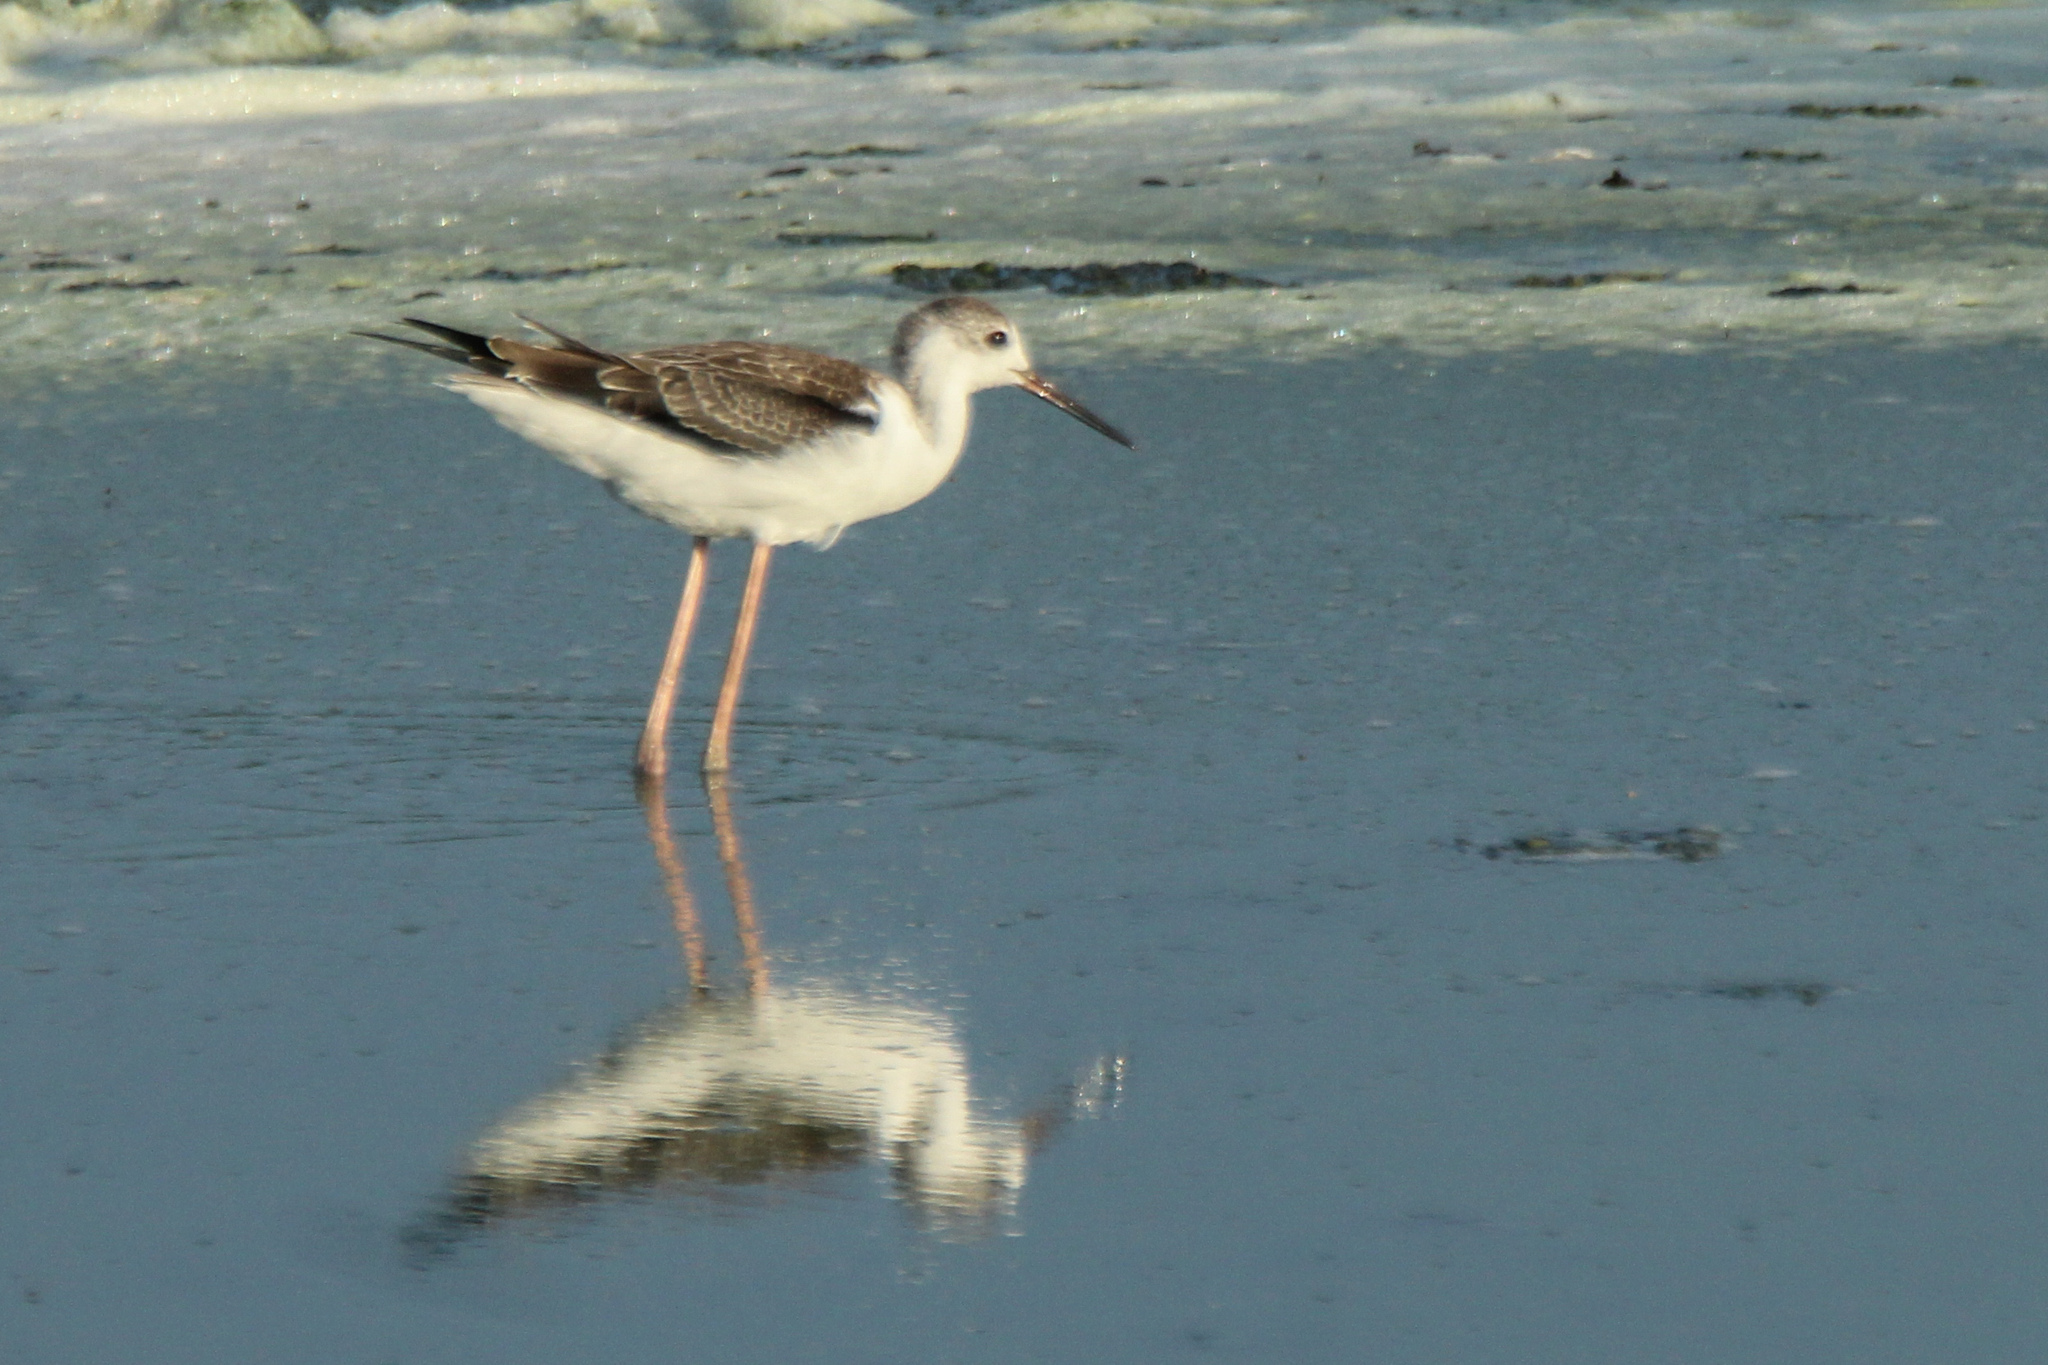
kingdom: Animalia
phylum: Chordata
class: Aves
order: Charadriiformes
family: Recurvirostridae
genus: Himantopus
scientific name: Himantopus himantopus
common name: Black-winged stilt
